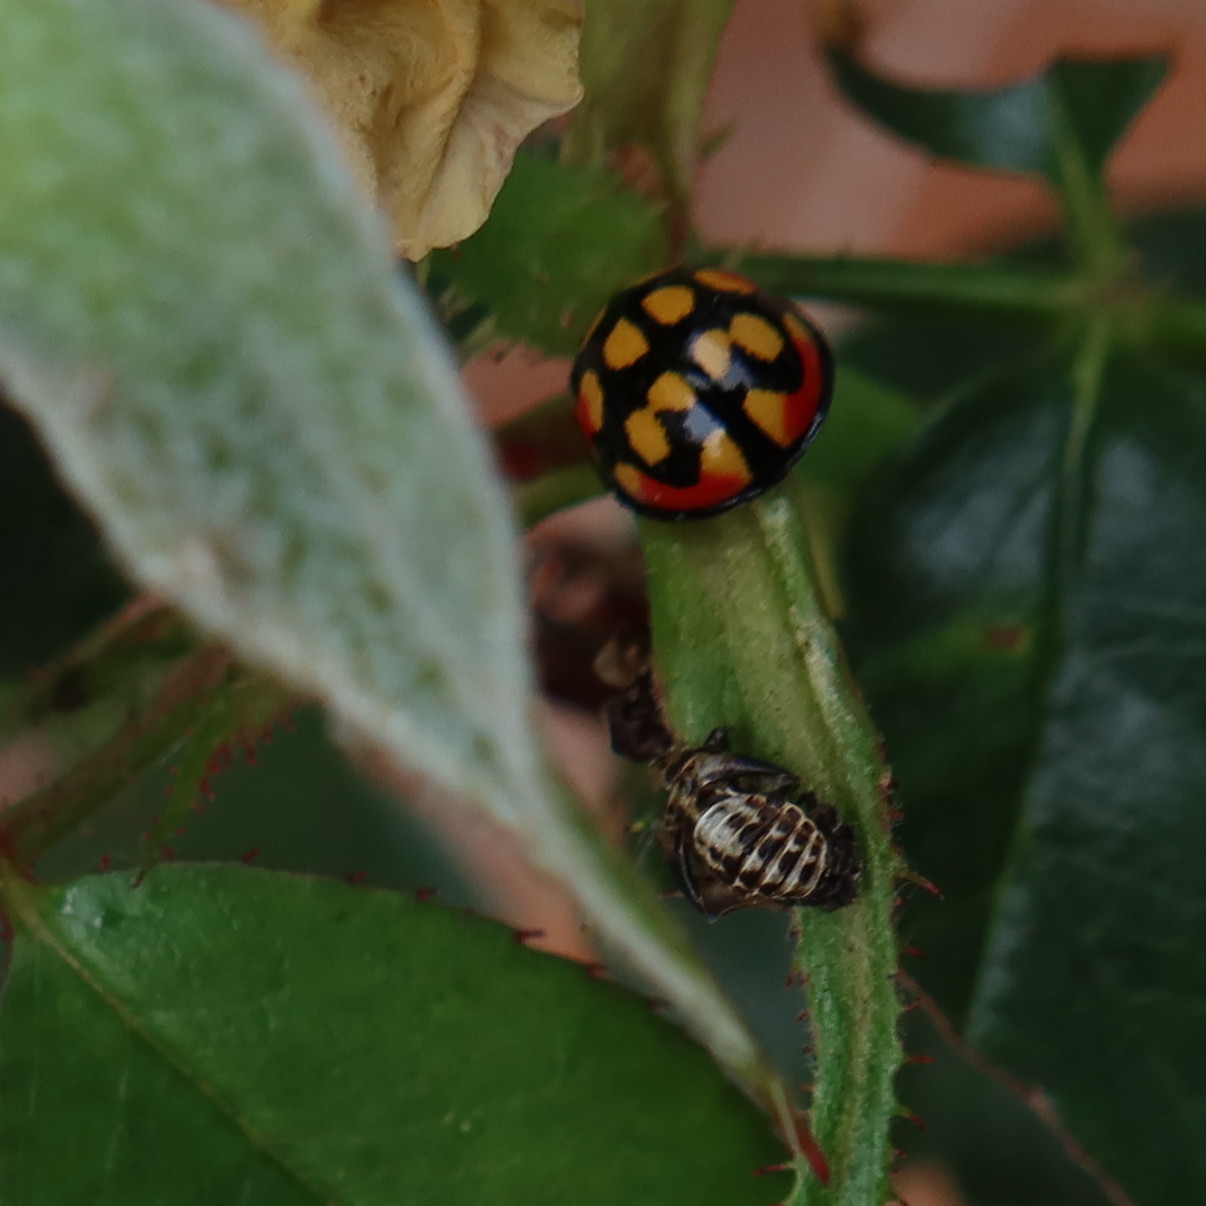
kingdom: Animalia
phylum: Arthropoda
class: Insecta
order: Coleoptera
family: Coccinellidae
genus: Cheilomenes
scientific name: Cheilomenes sulphurea
